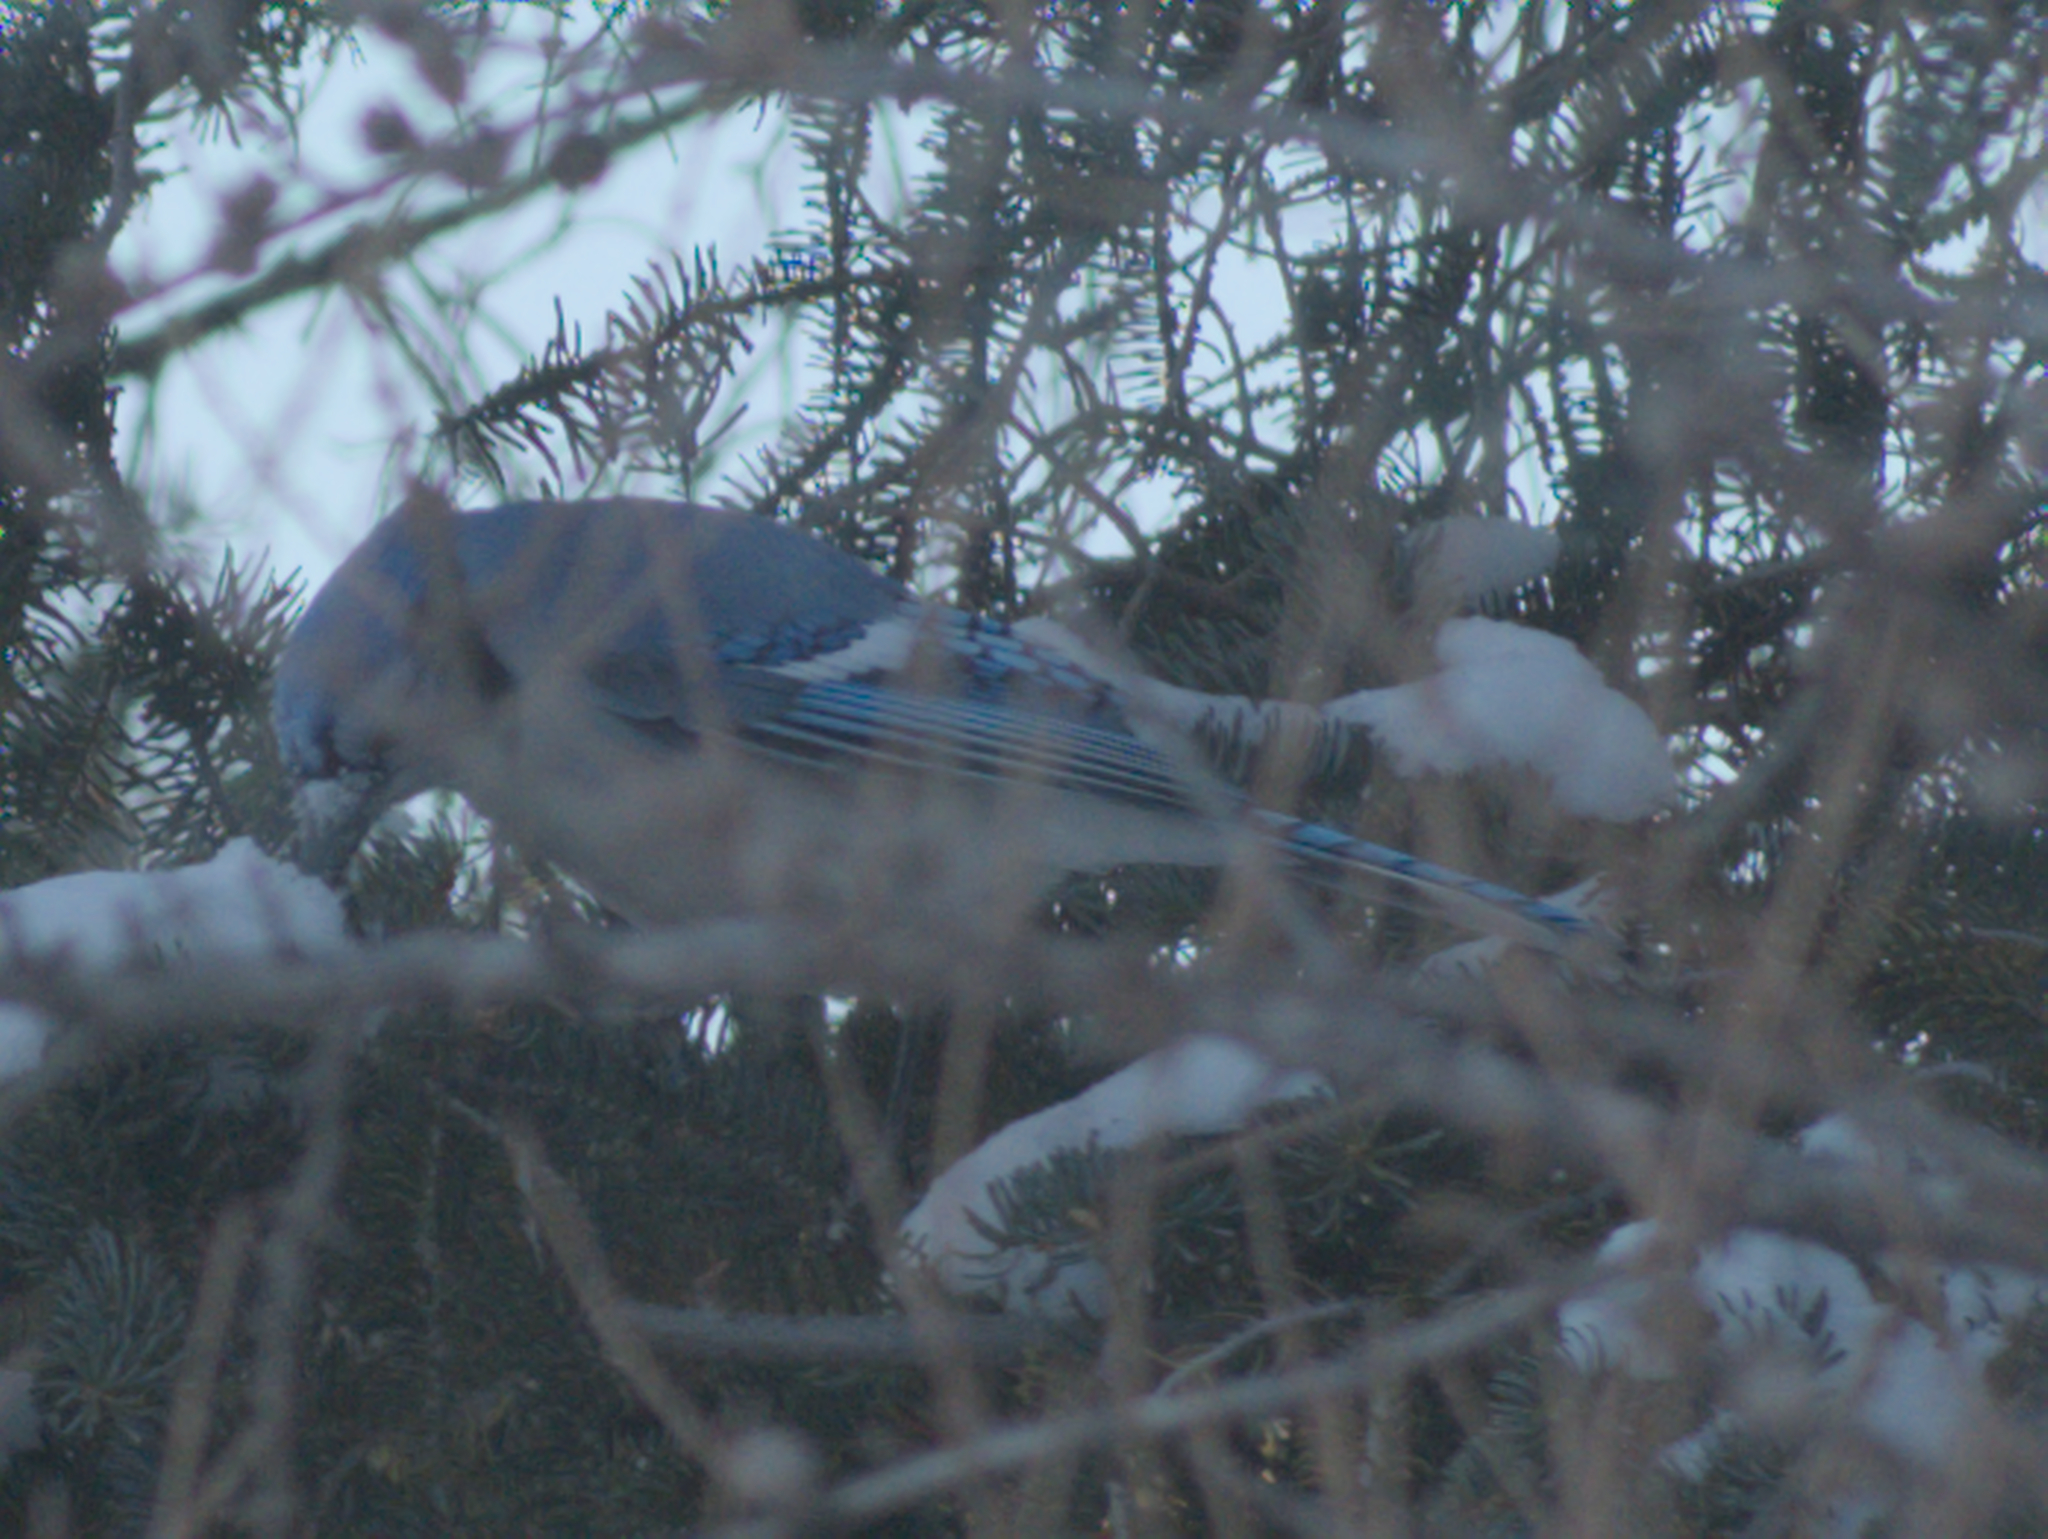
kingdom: Animalia
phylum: Chordata
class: Aves
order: Passeriformes
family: Corvidae
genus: Cyanocitta
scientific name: Cyanocitta cristata
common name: Blue jay
